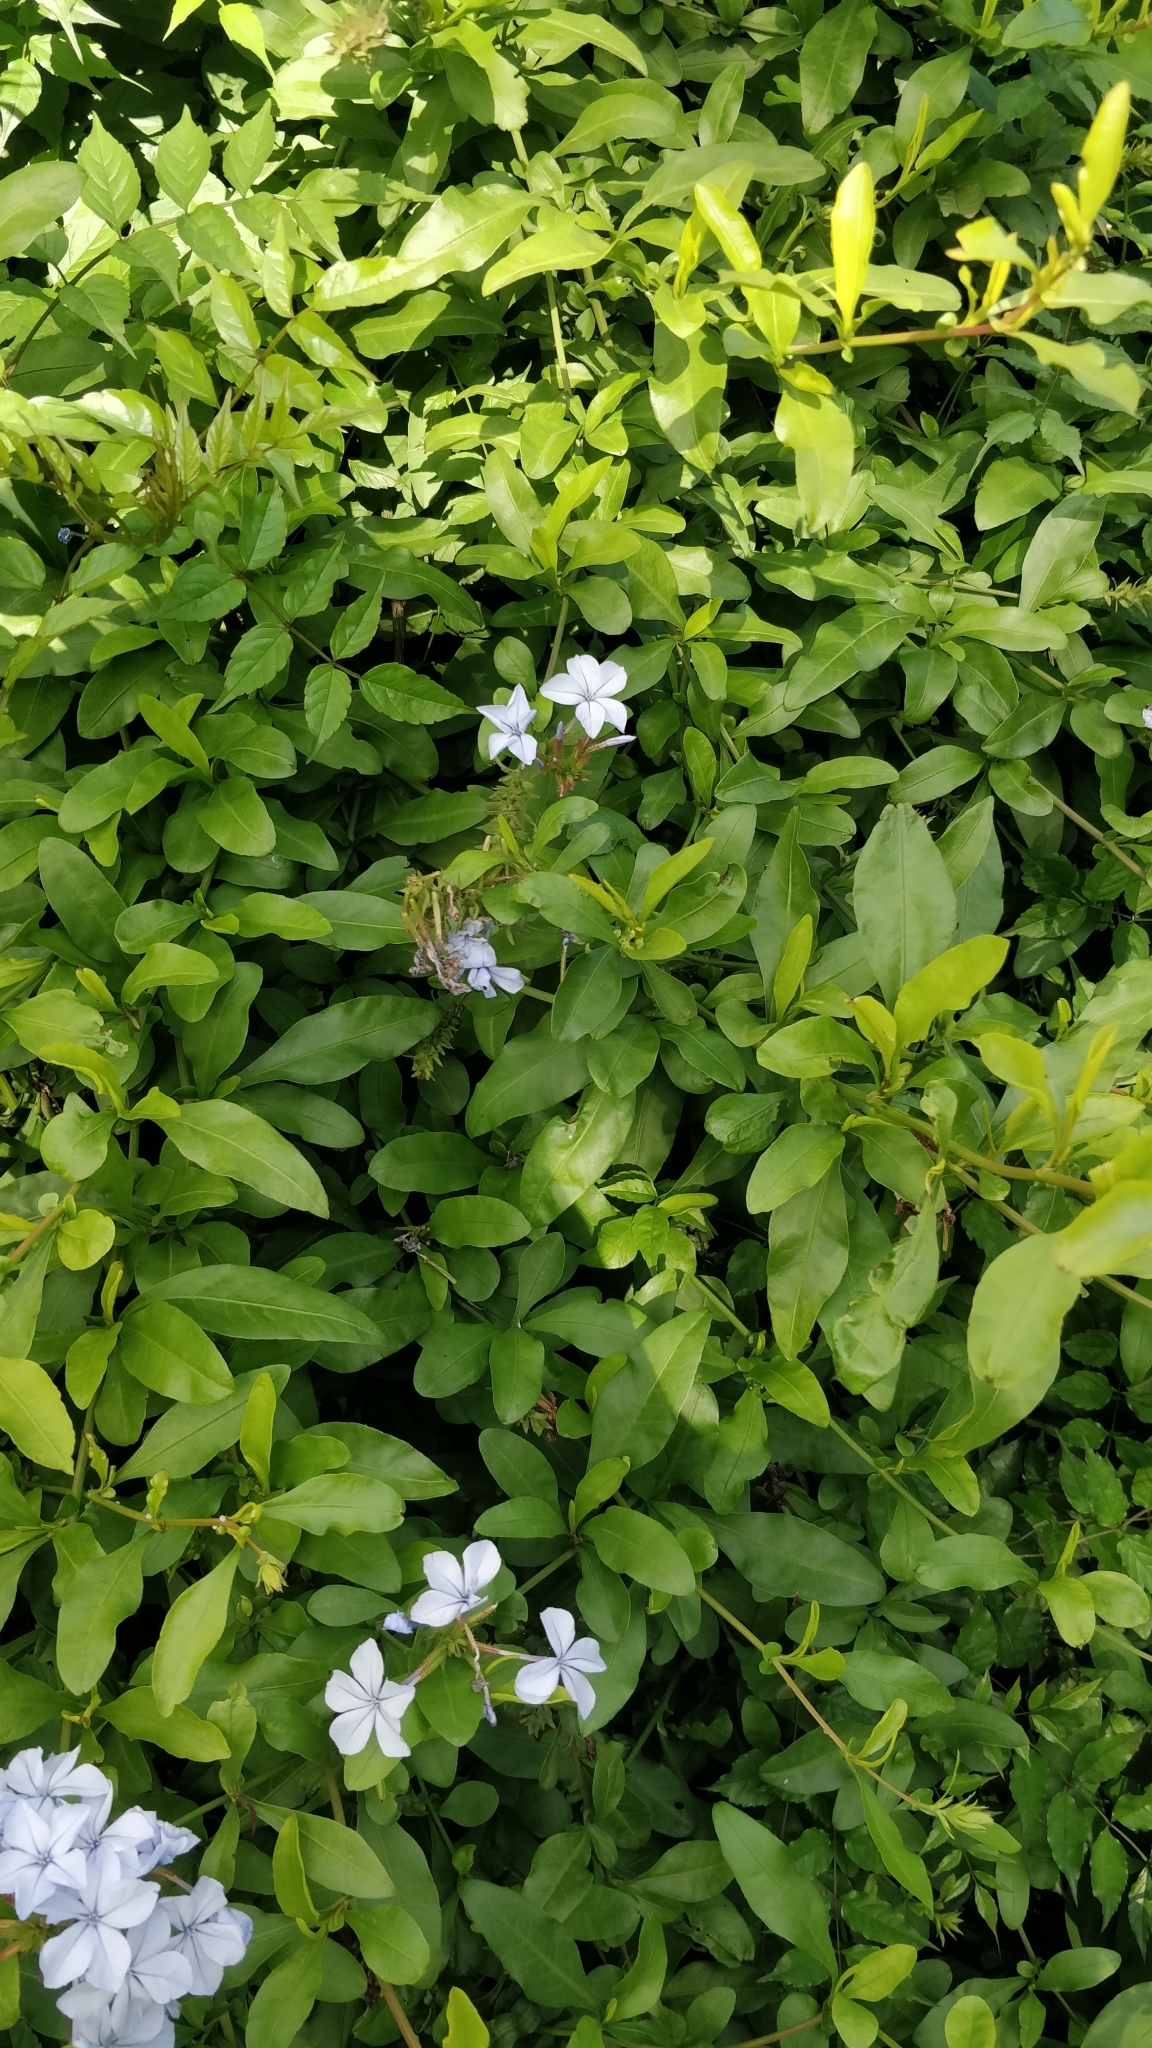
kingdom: Plantae
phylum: Tracheophyta
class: Magnoliopsida
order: Caryophyllales
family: Plumbaginaceae
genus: Plumbago
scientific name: Plumbago auriculata
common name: Cape leadwort
